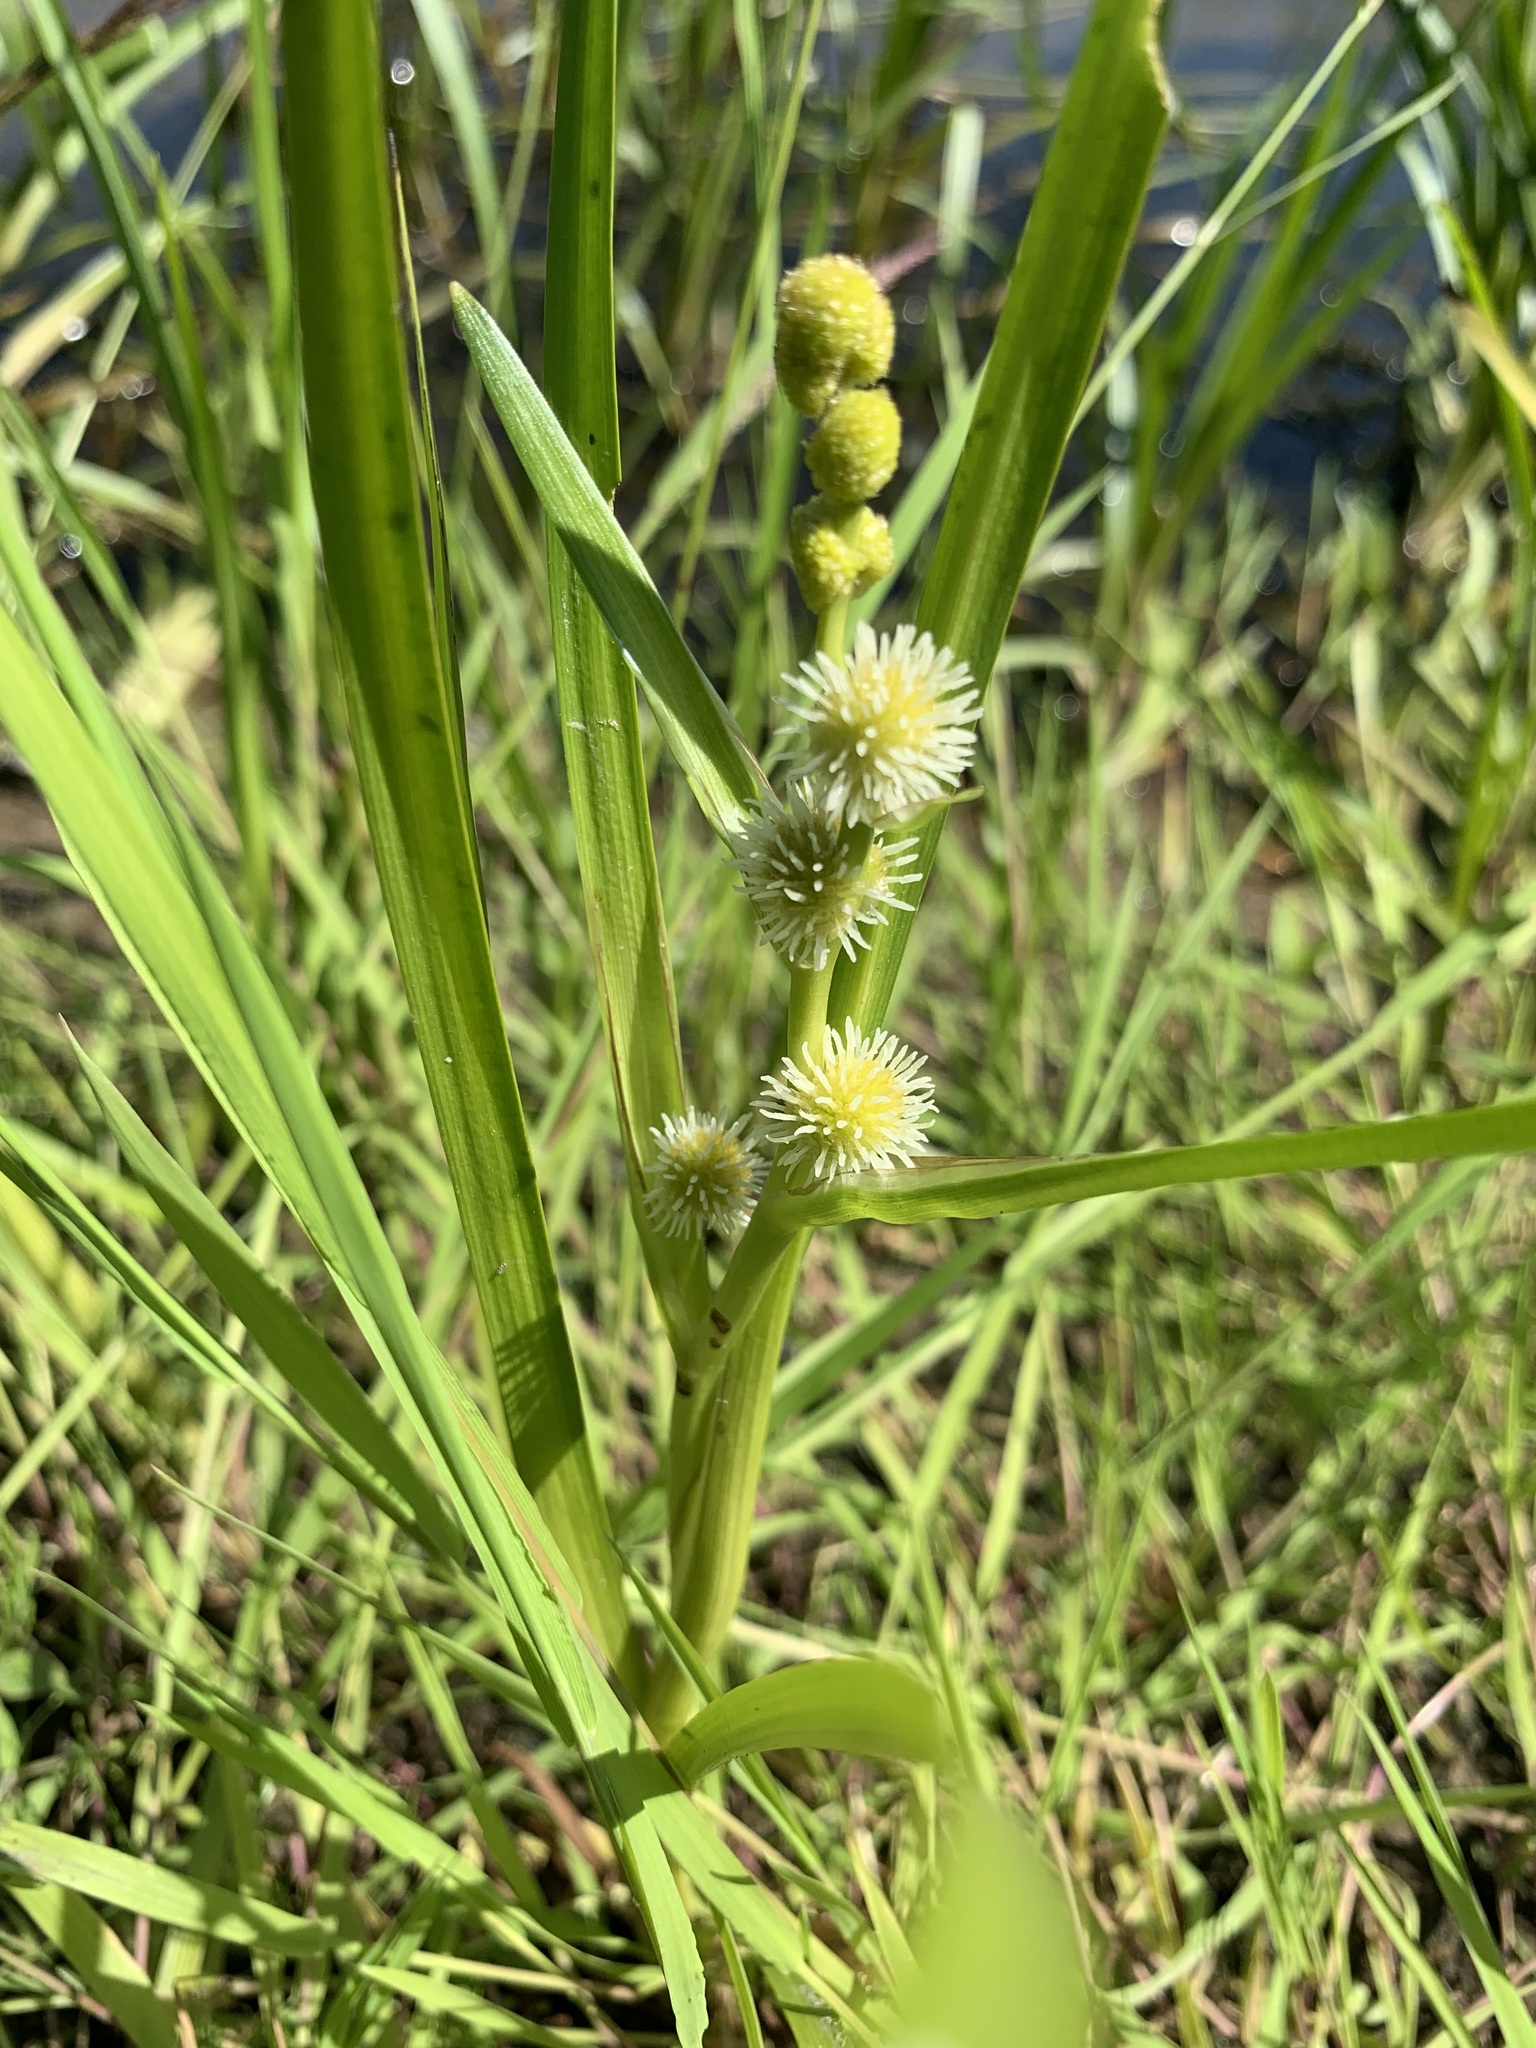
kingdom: Plantae
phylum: Tracheophyta
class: Liliopsida
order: Poales
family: Typhaceae
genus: Sparganium
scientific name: Sparganium emersum
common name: Unbranched bur-reed
